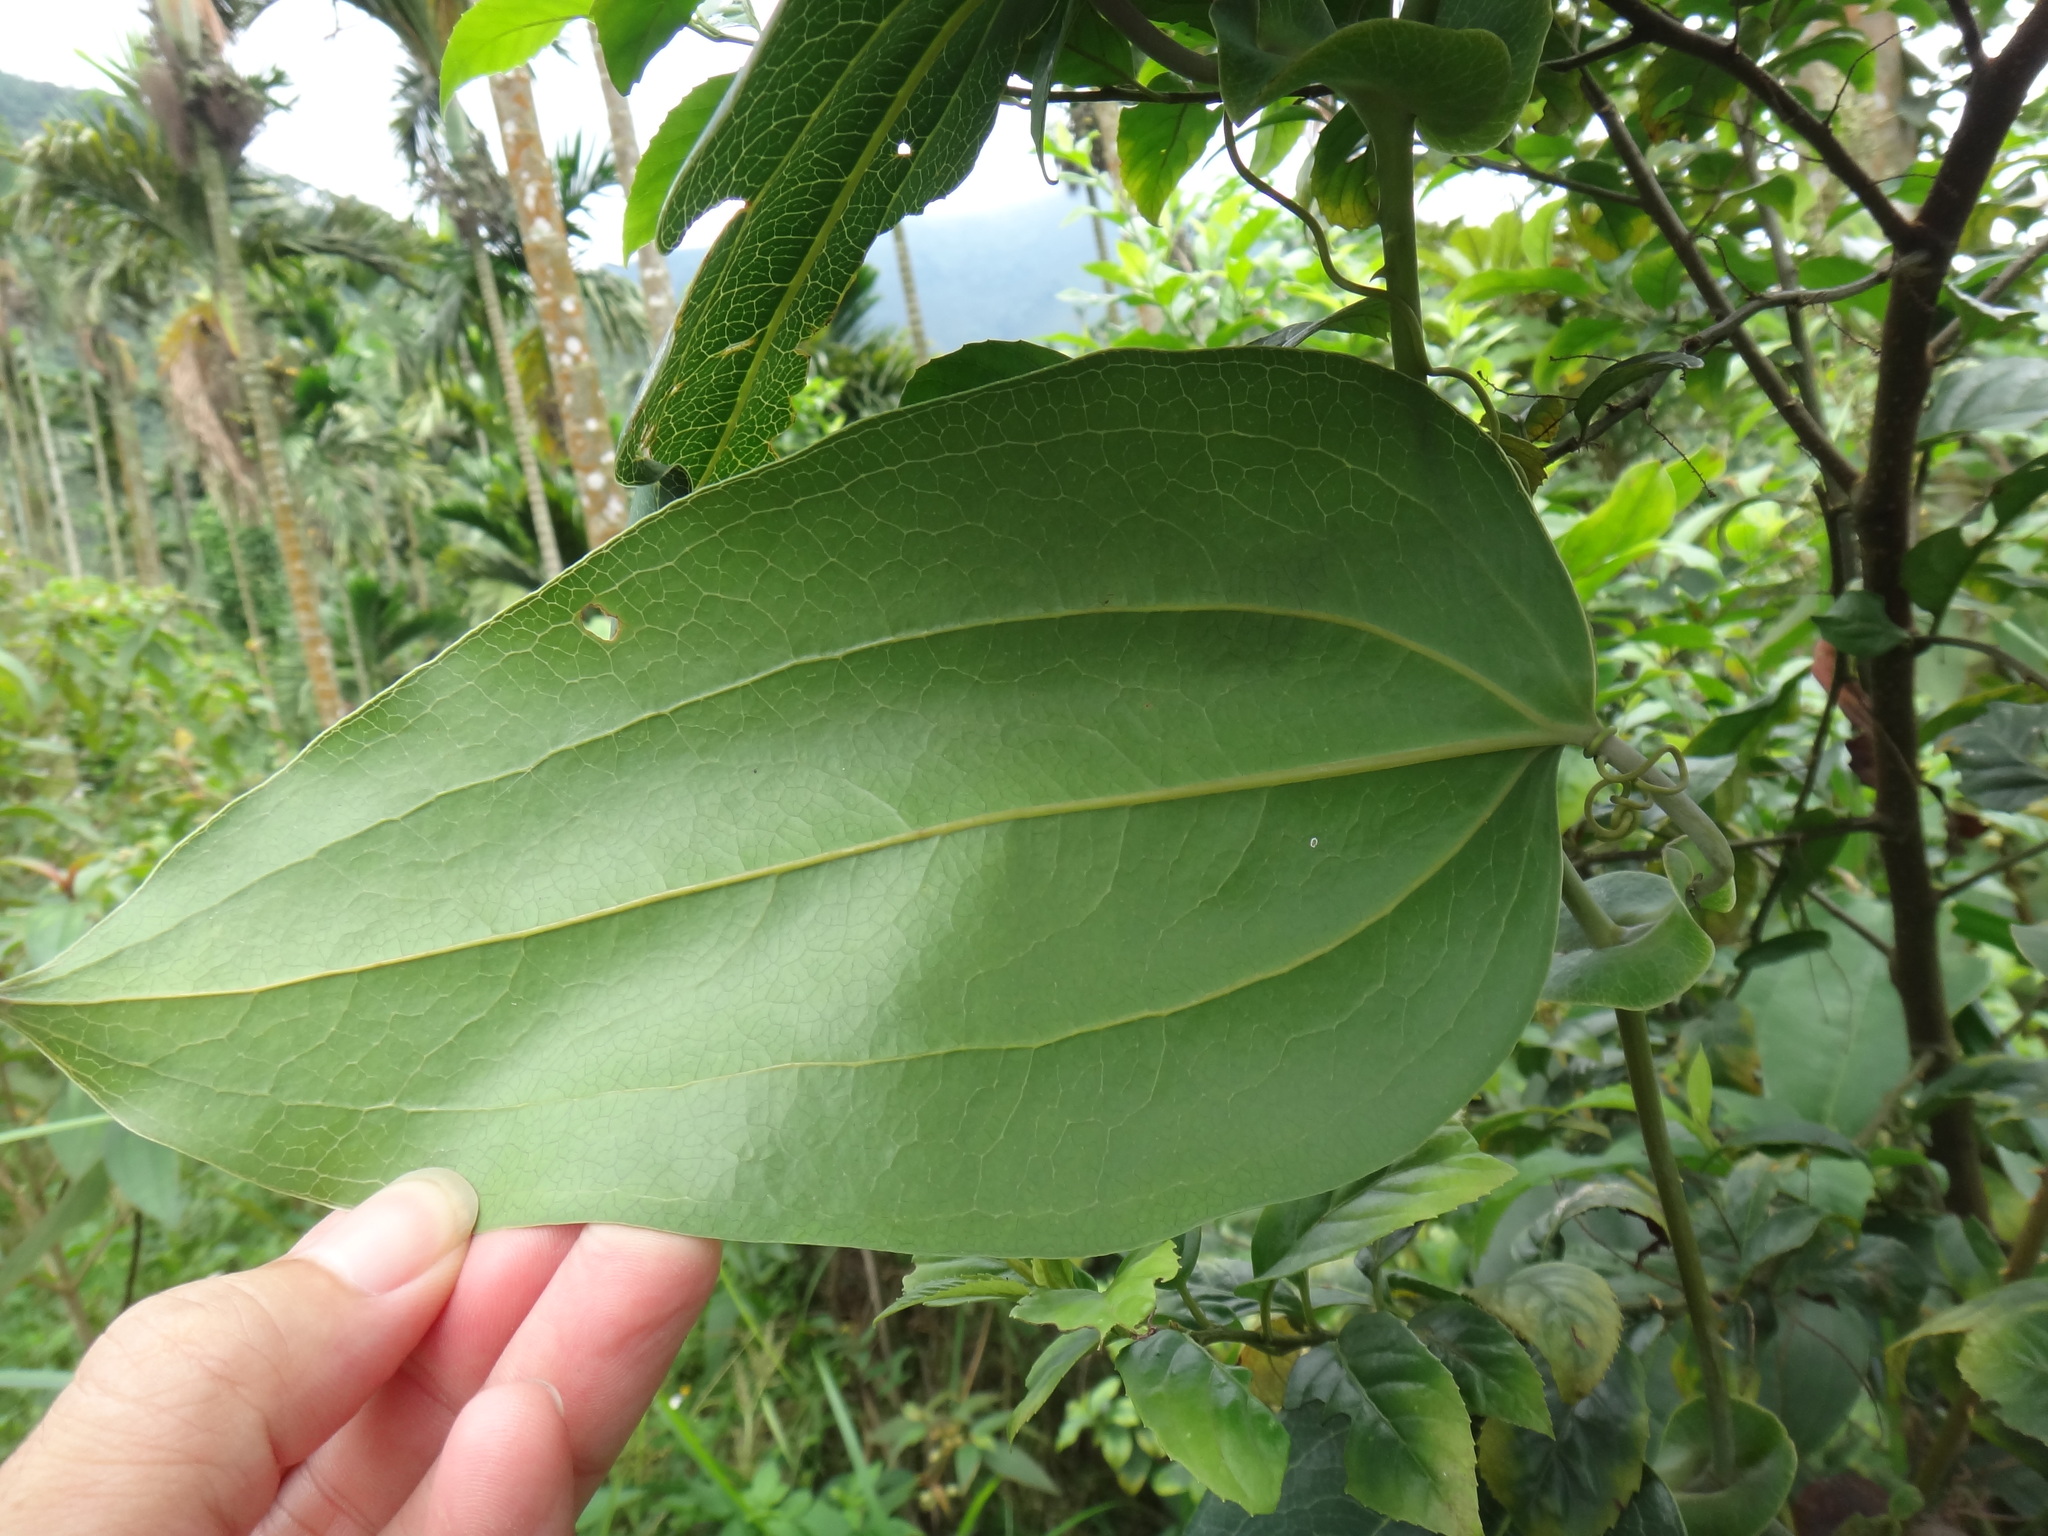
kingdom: Plantae
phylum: Tracheophyta
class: Liliopsida
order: Liliales
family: Smilacaceae
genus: Smilax
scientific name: Smilax ocreata
